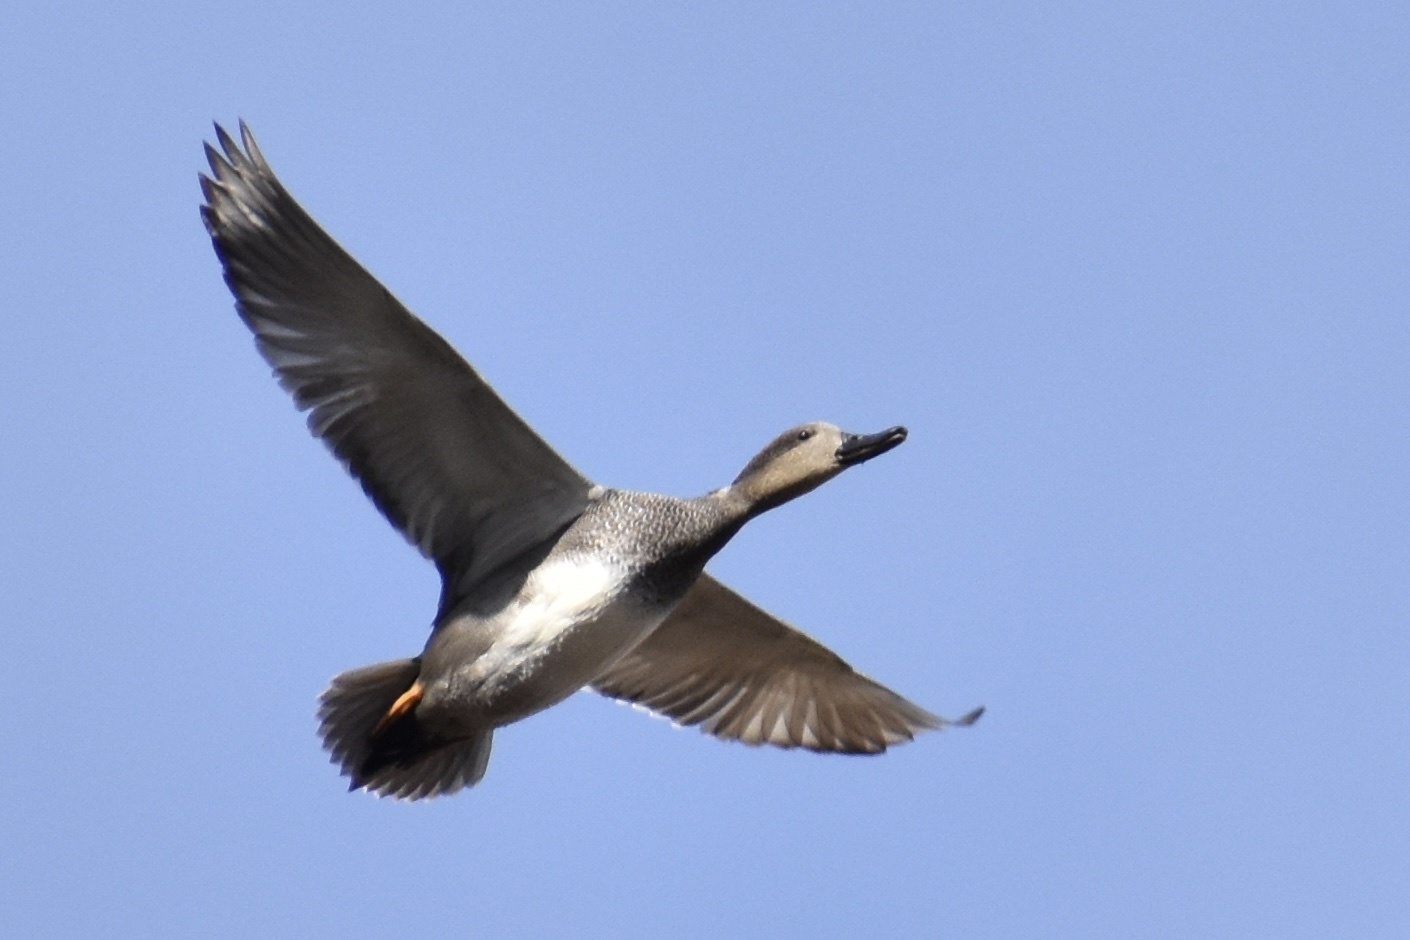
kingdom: Animalia
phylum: Chordata
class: Aves
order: Anseriformes
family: Anatidae
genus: Mareca
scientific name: Mareca strepera
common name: Gadwall
